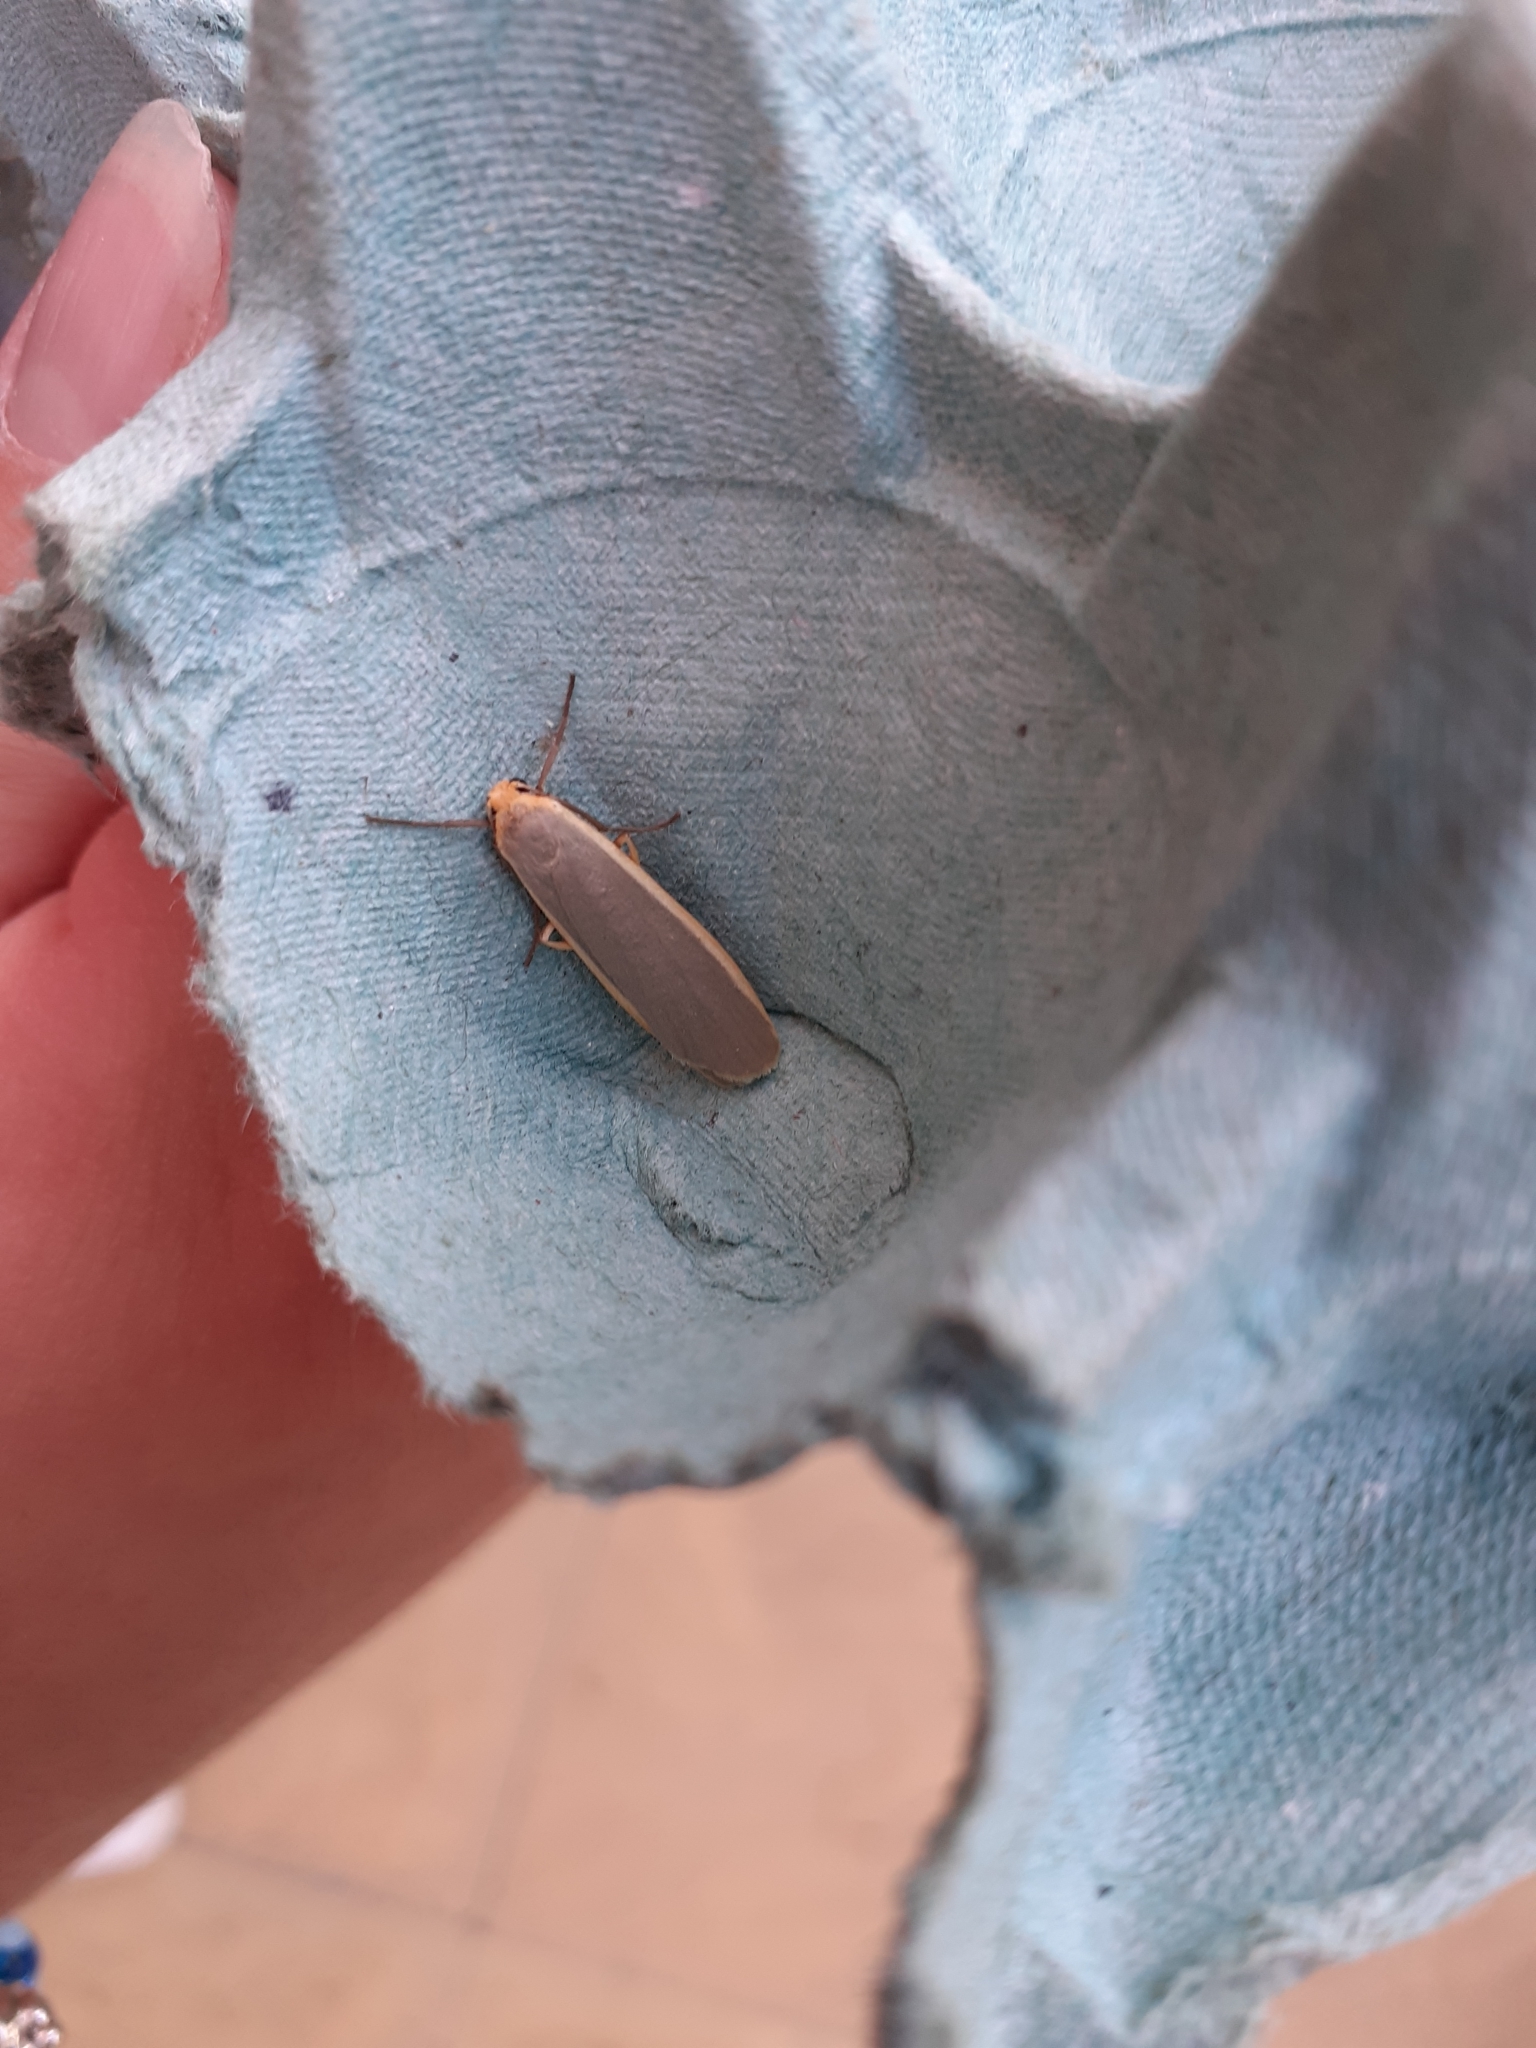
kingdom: Animalia
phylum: Arthropoda
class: Insecta
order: Lepidoptera
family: Erebidae
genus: Nyea
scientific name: Nyea lurideola
